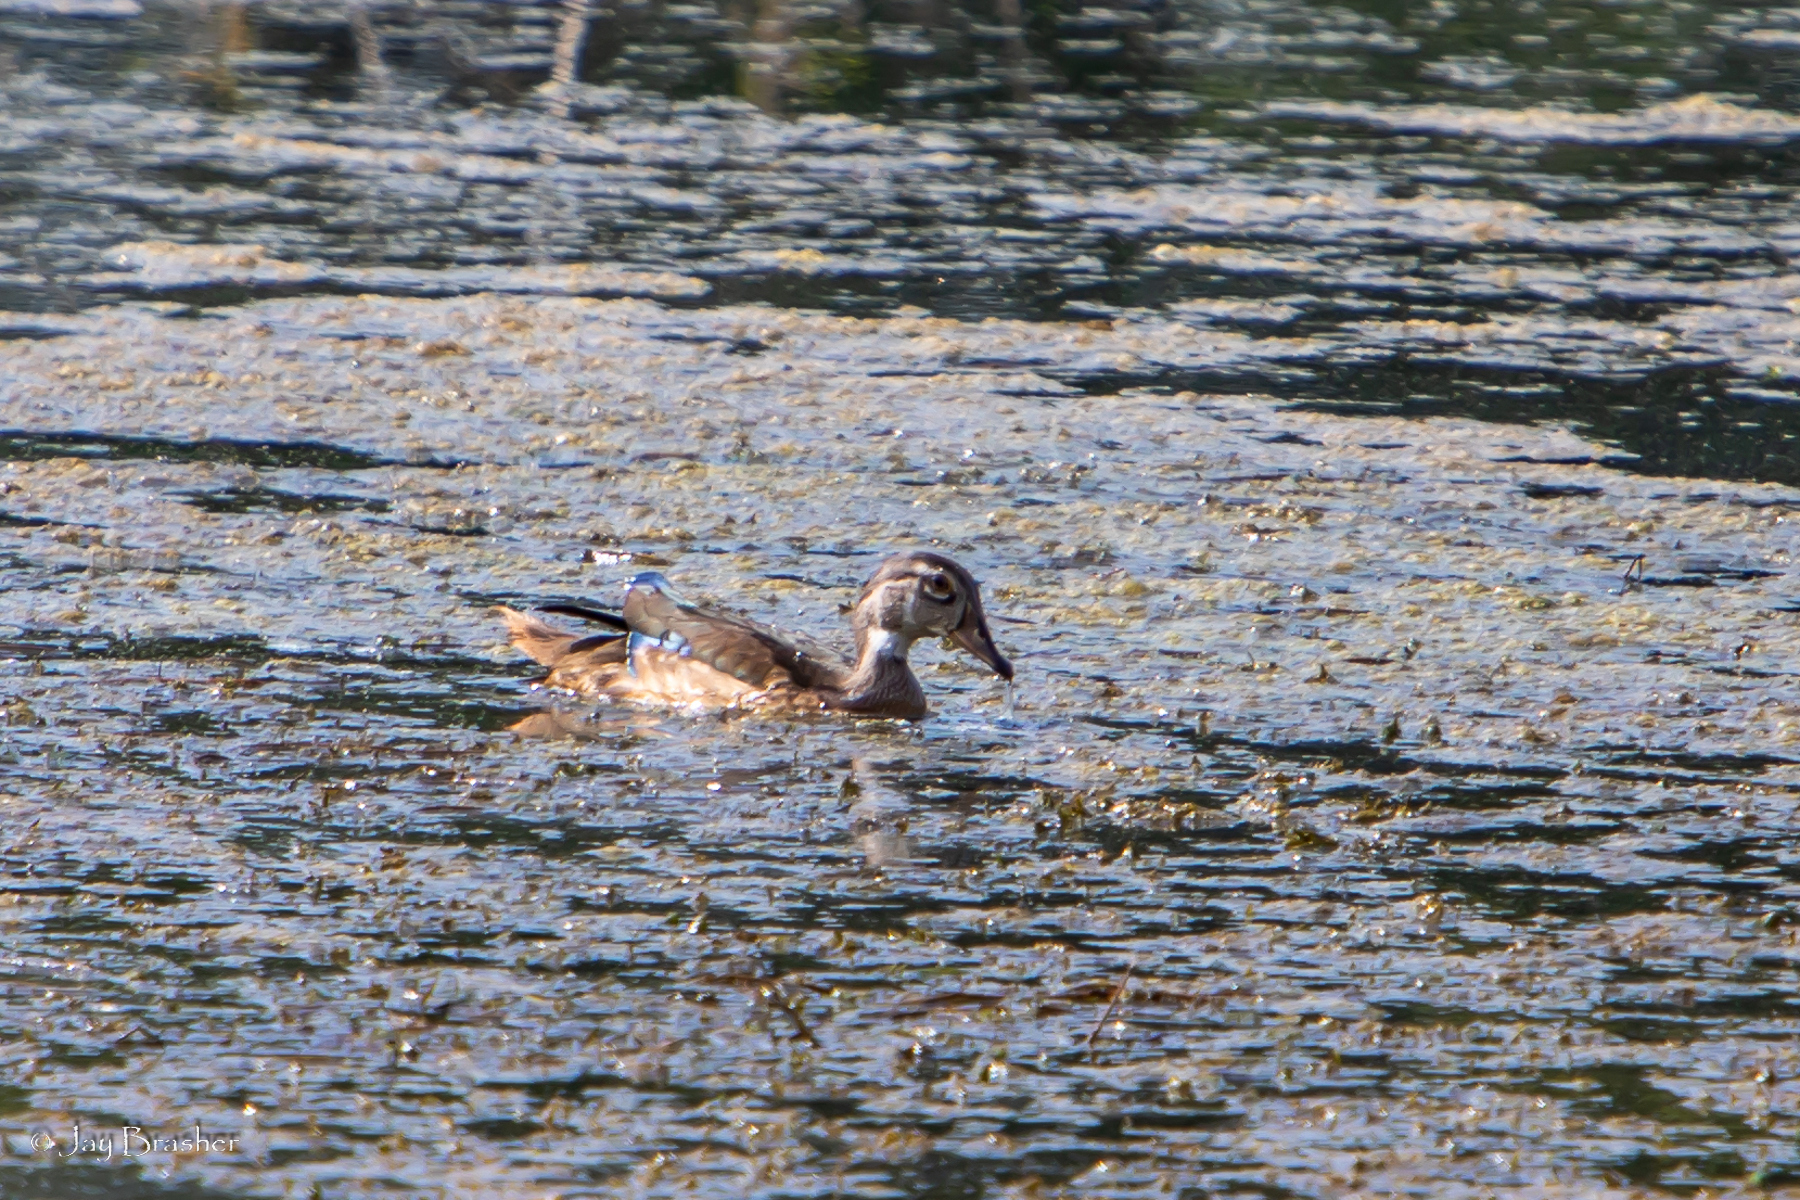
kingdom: Animalia
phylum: Chordata
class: Aves
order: Anseriformes
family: Anatidae
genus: Aix
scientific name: Aix sponsa
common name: Wood duck
